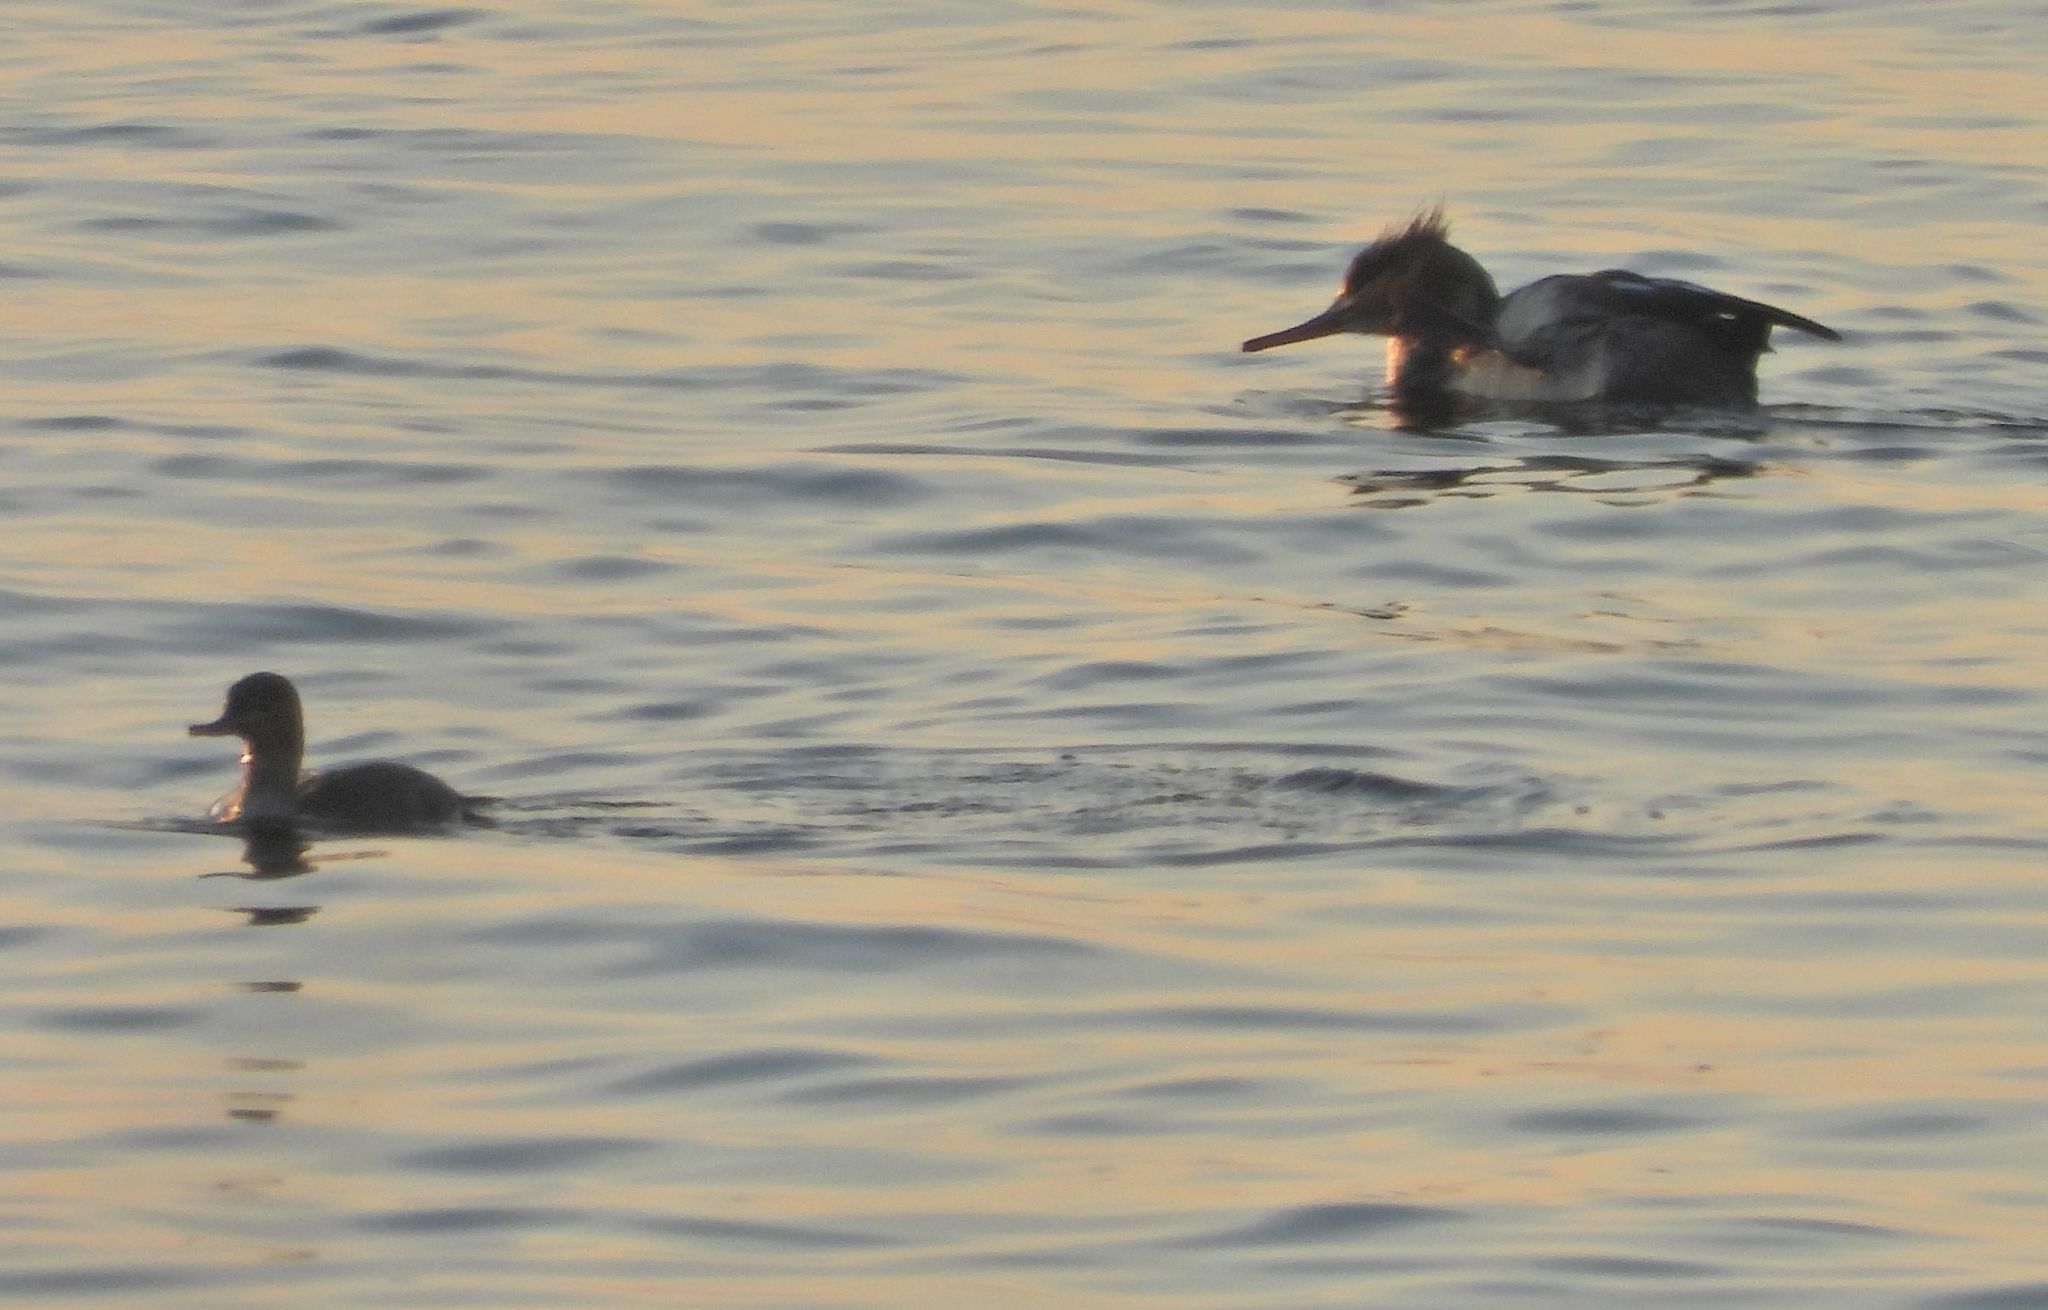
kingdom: Animalia
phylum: Chordata
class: Aves
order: Anseriformes
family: Anatidae
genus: Lophodytes
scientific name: Lophodytes cucullatus
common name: Hooded merganser
